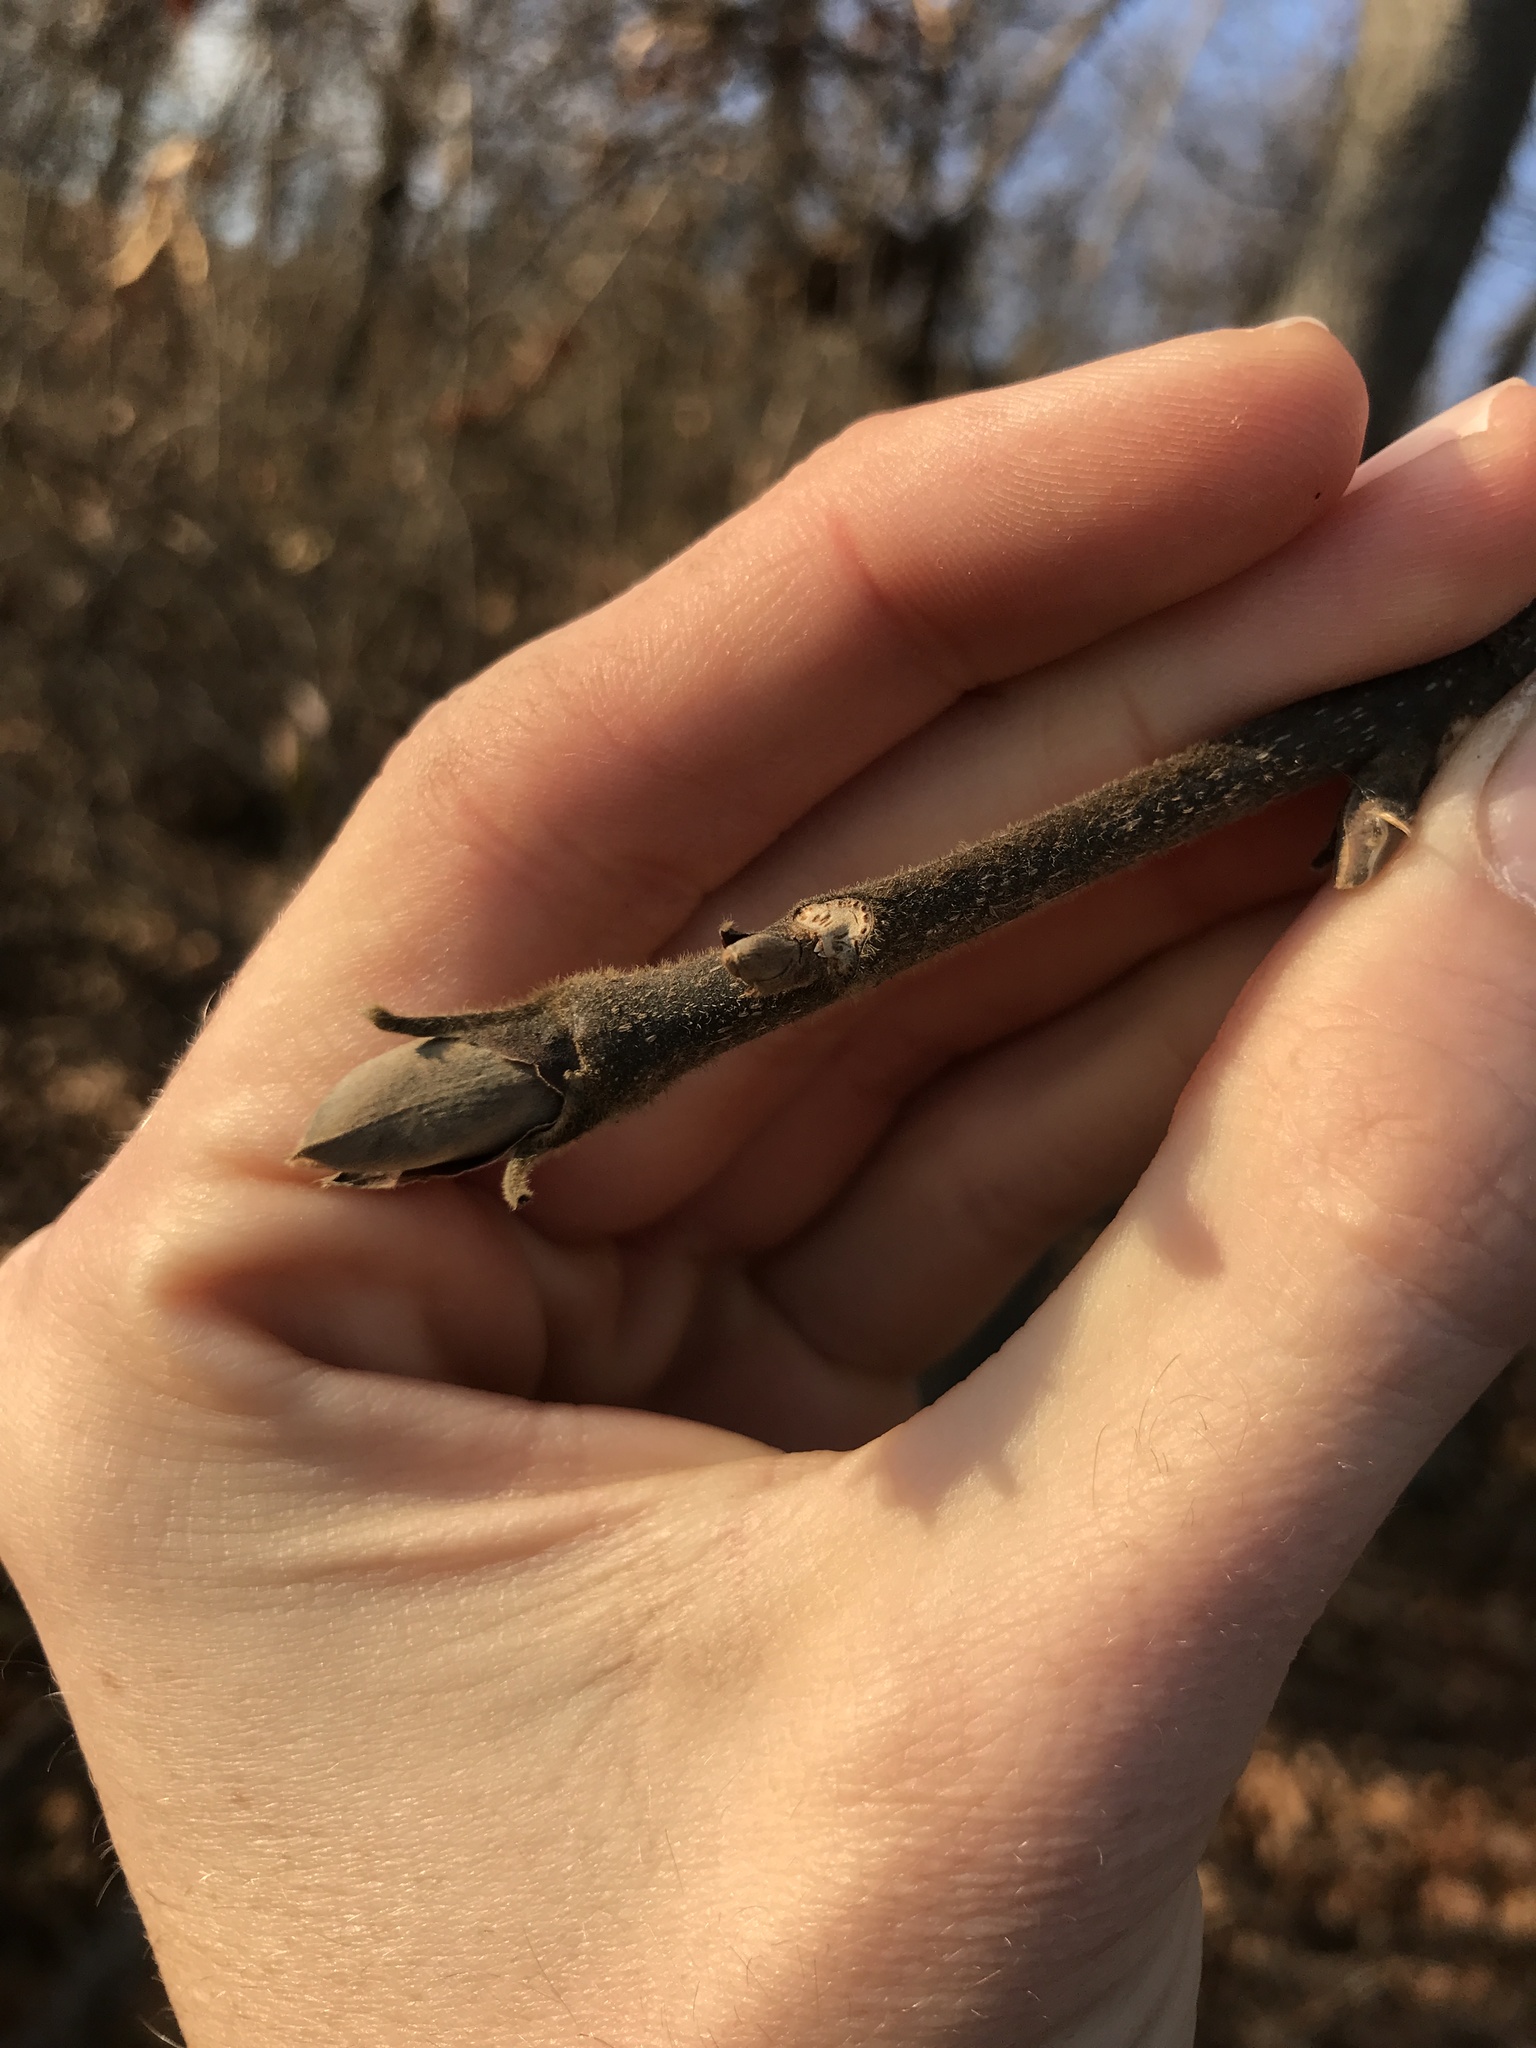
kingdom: Plantae
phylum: Tracheophyta
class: Magnoliopsida
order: Fagales
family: Juglandaceae
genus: Carya
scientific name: Carya ovata
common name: Shagbark hickory
